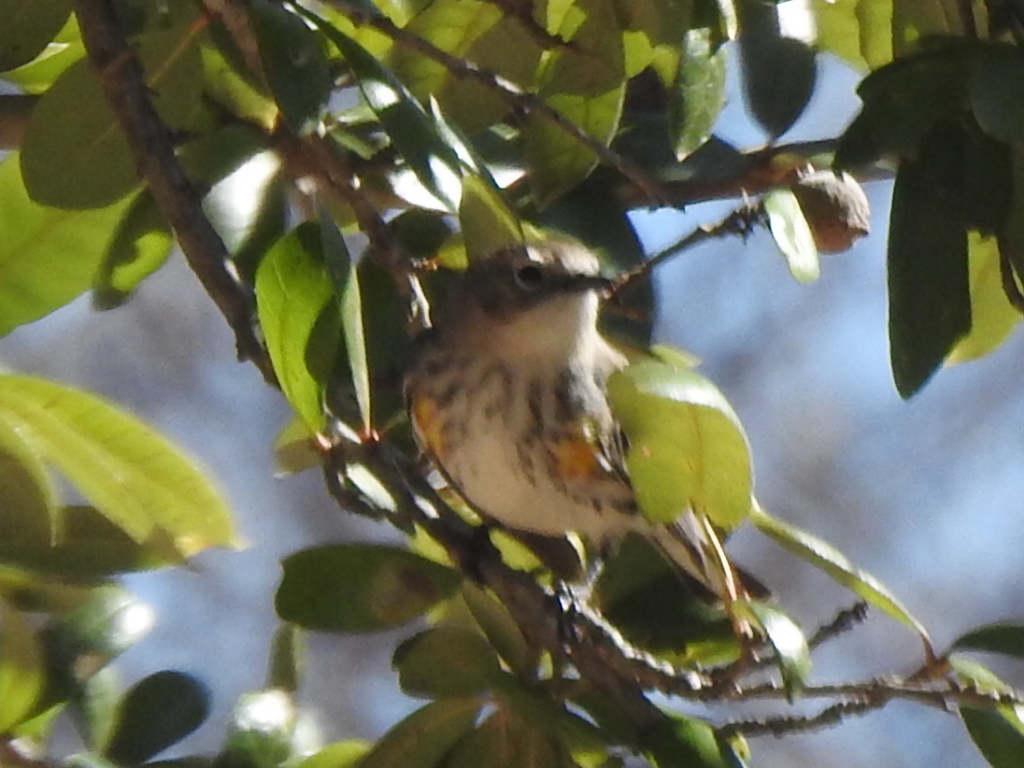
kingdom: Animalia
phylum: Chordata
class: Aves
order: Passeriformes
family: Parulidae
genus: Setophaga
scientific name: Setophaga coronata
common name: Myrtle warbler
